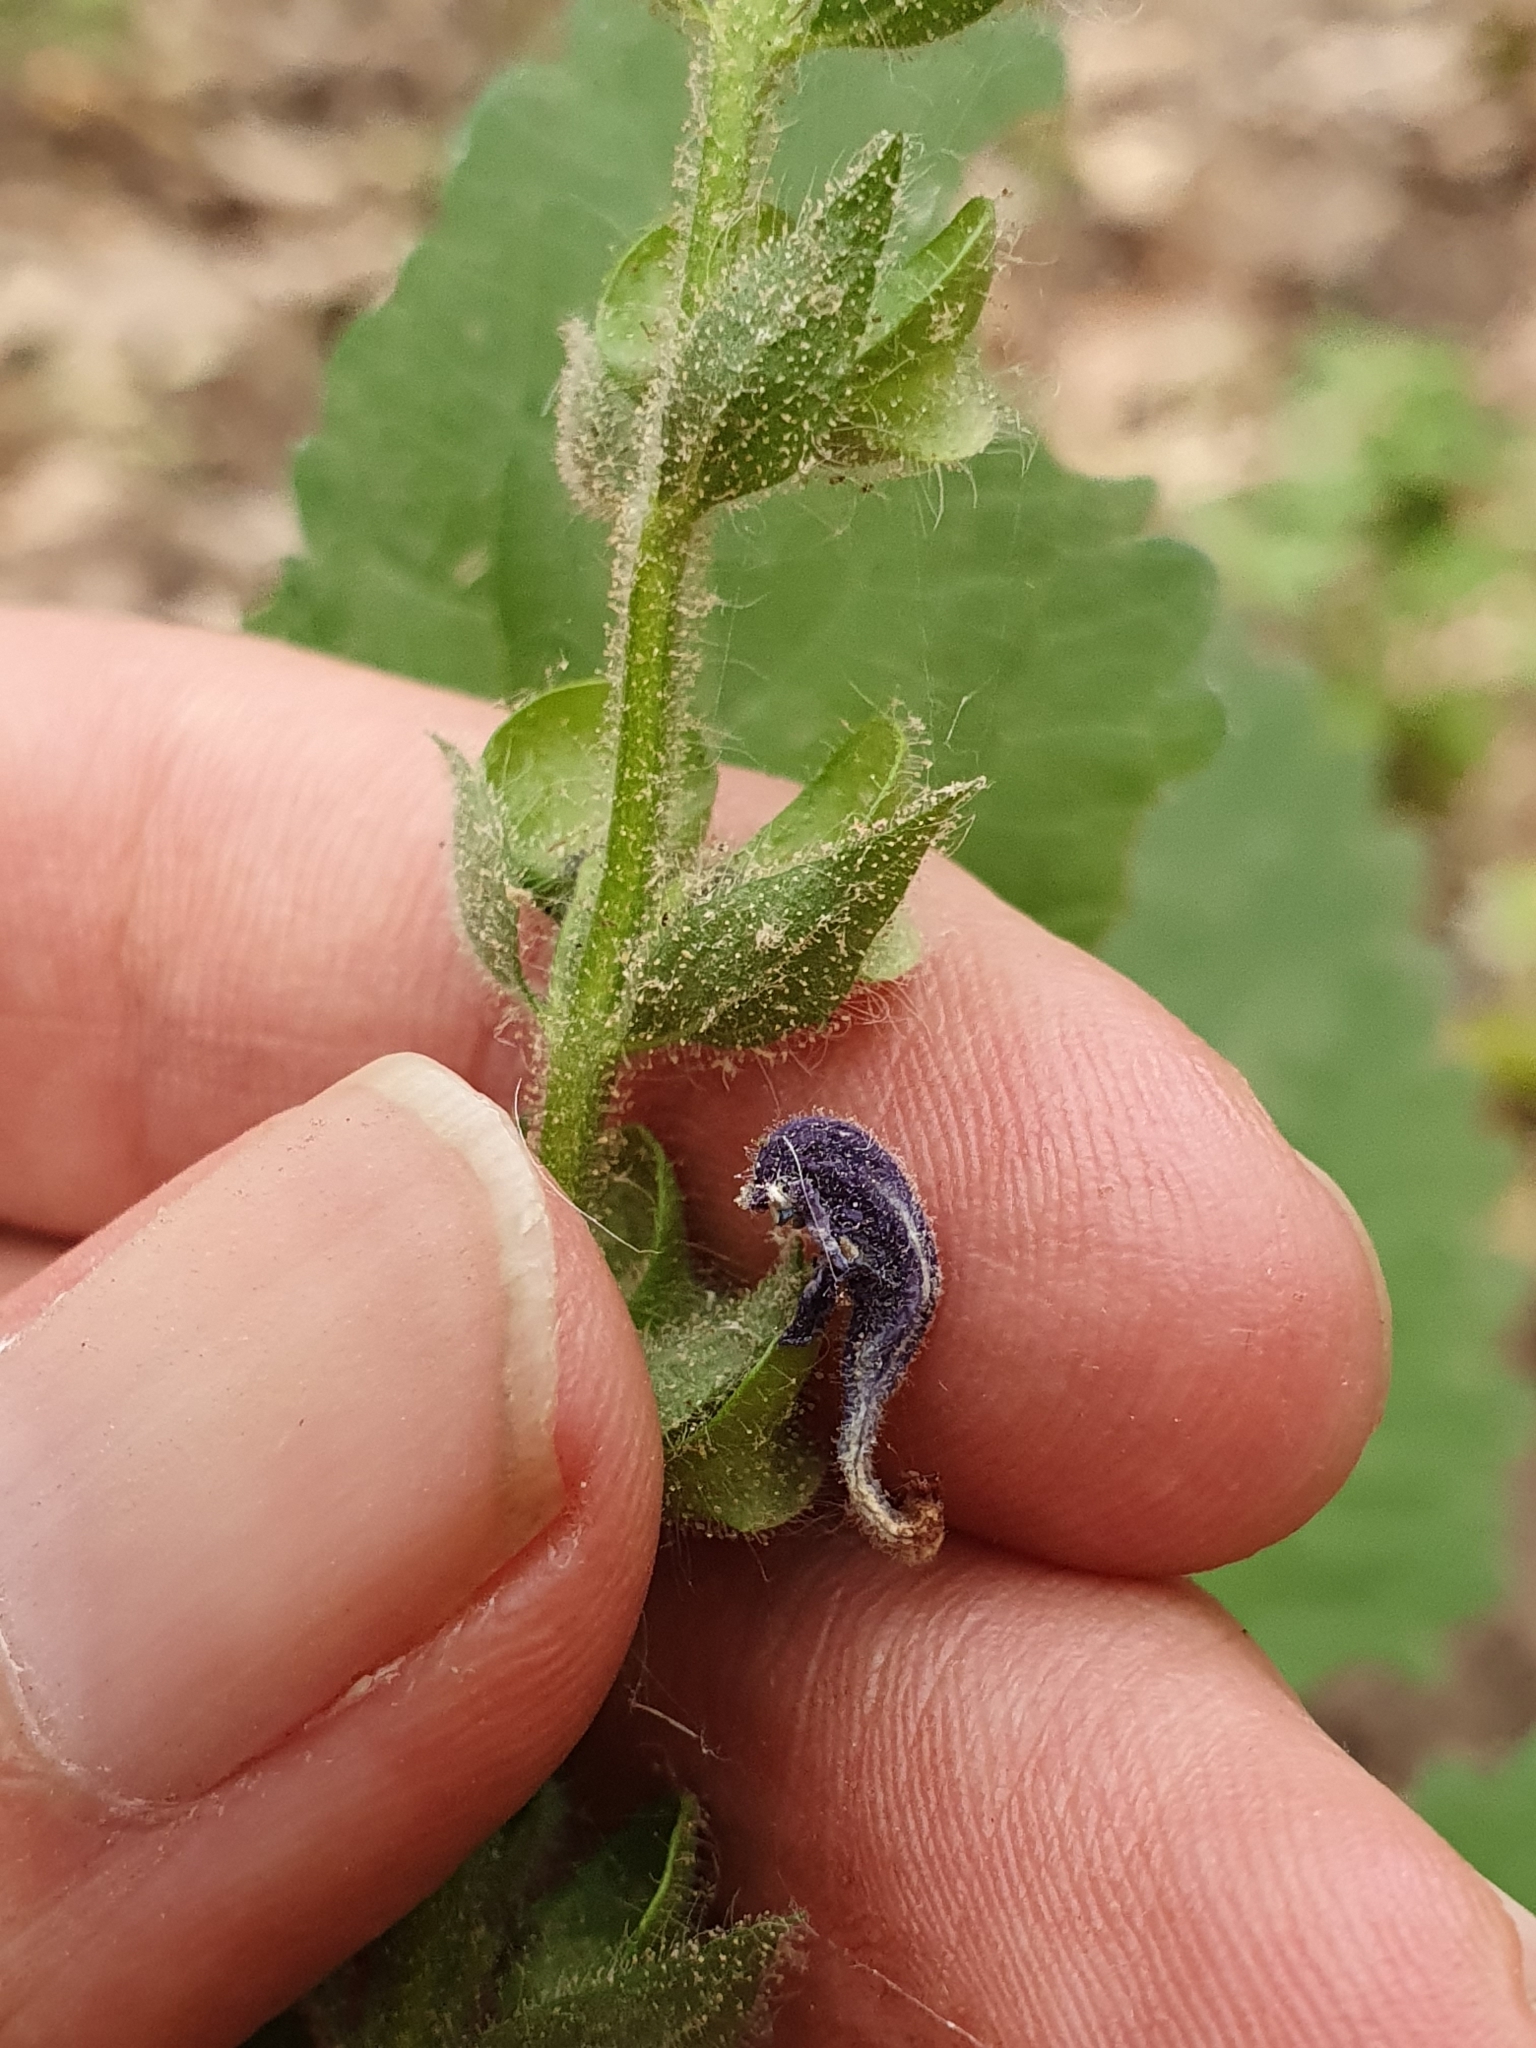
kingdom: Plantae
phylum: Tracheophyta
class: Magnoliopsida
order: Lamiales
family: Lamiaceae
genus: Scutellaria
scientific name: Scutellaria columnae
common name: Large skullcap
